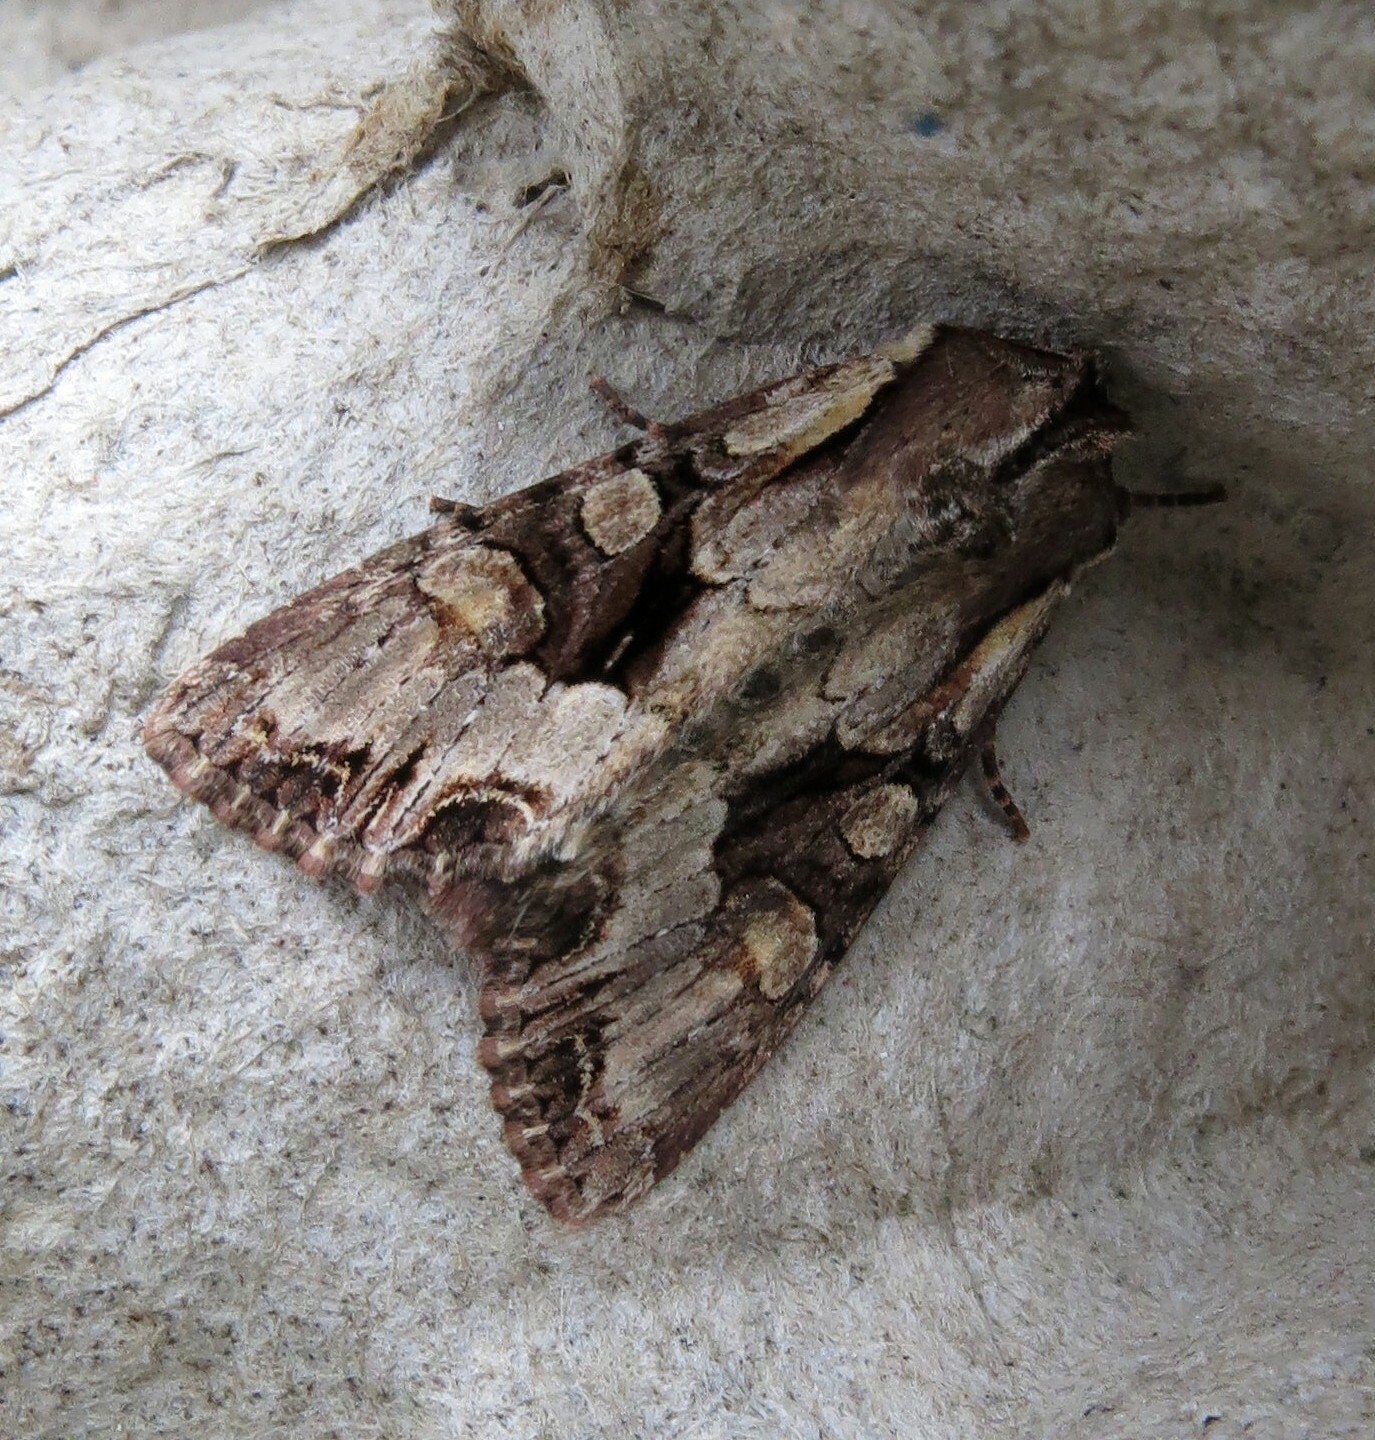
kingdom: Animalia
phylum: Arthropoda
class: Insecta
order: Lepidoptera
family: Noctuidae
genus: Lacanobia
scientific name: Lacanobia w-latinum
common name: Light brocade
